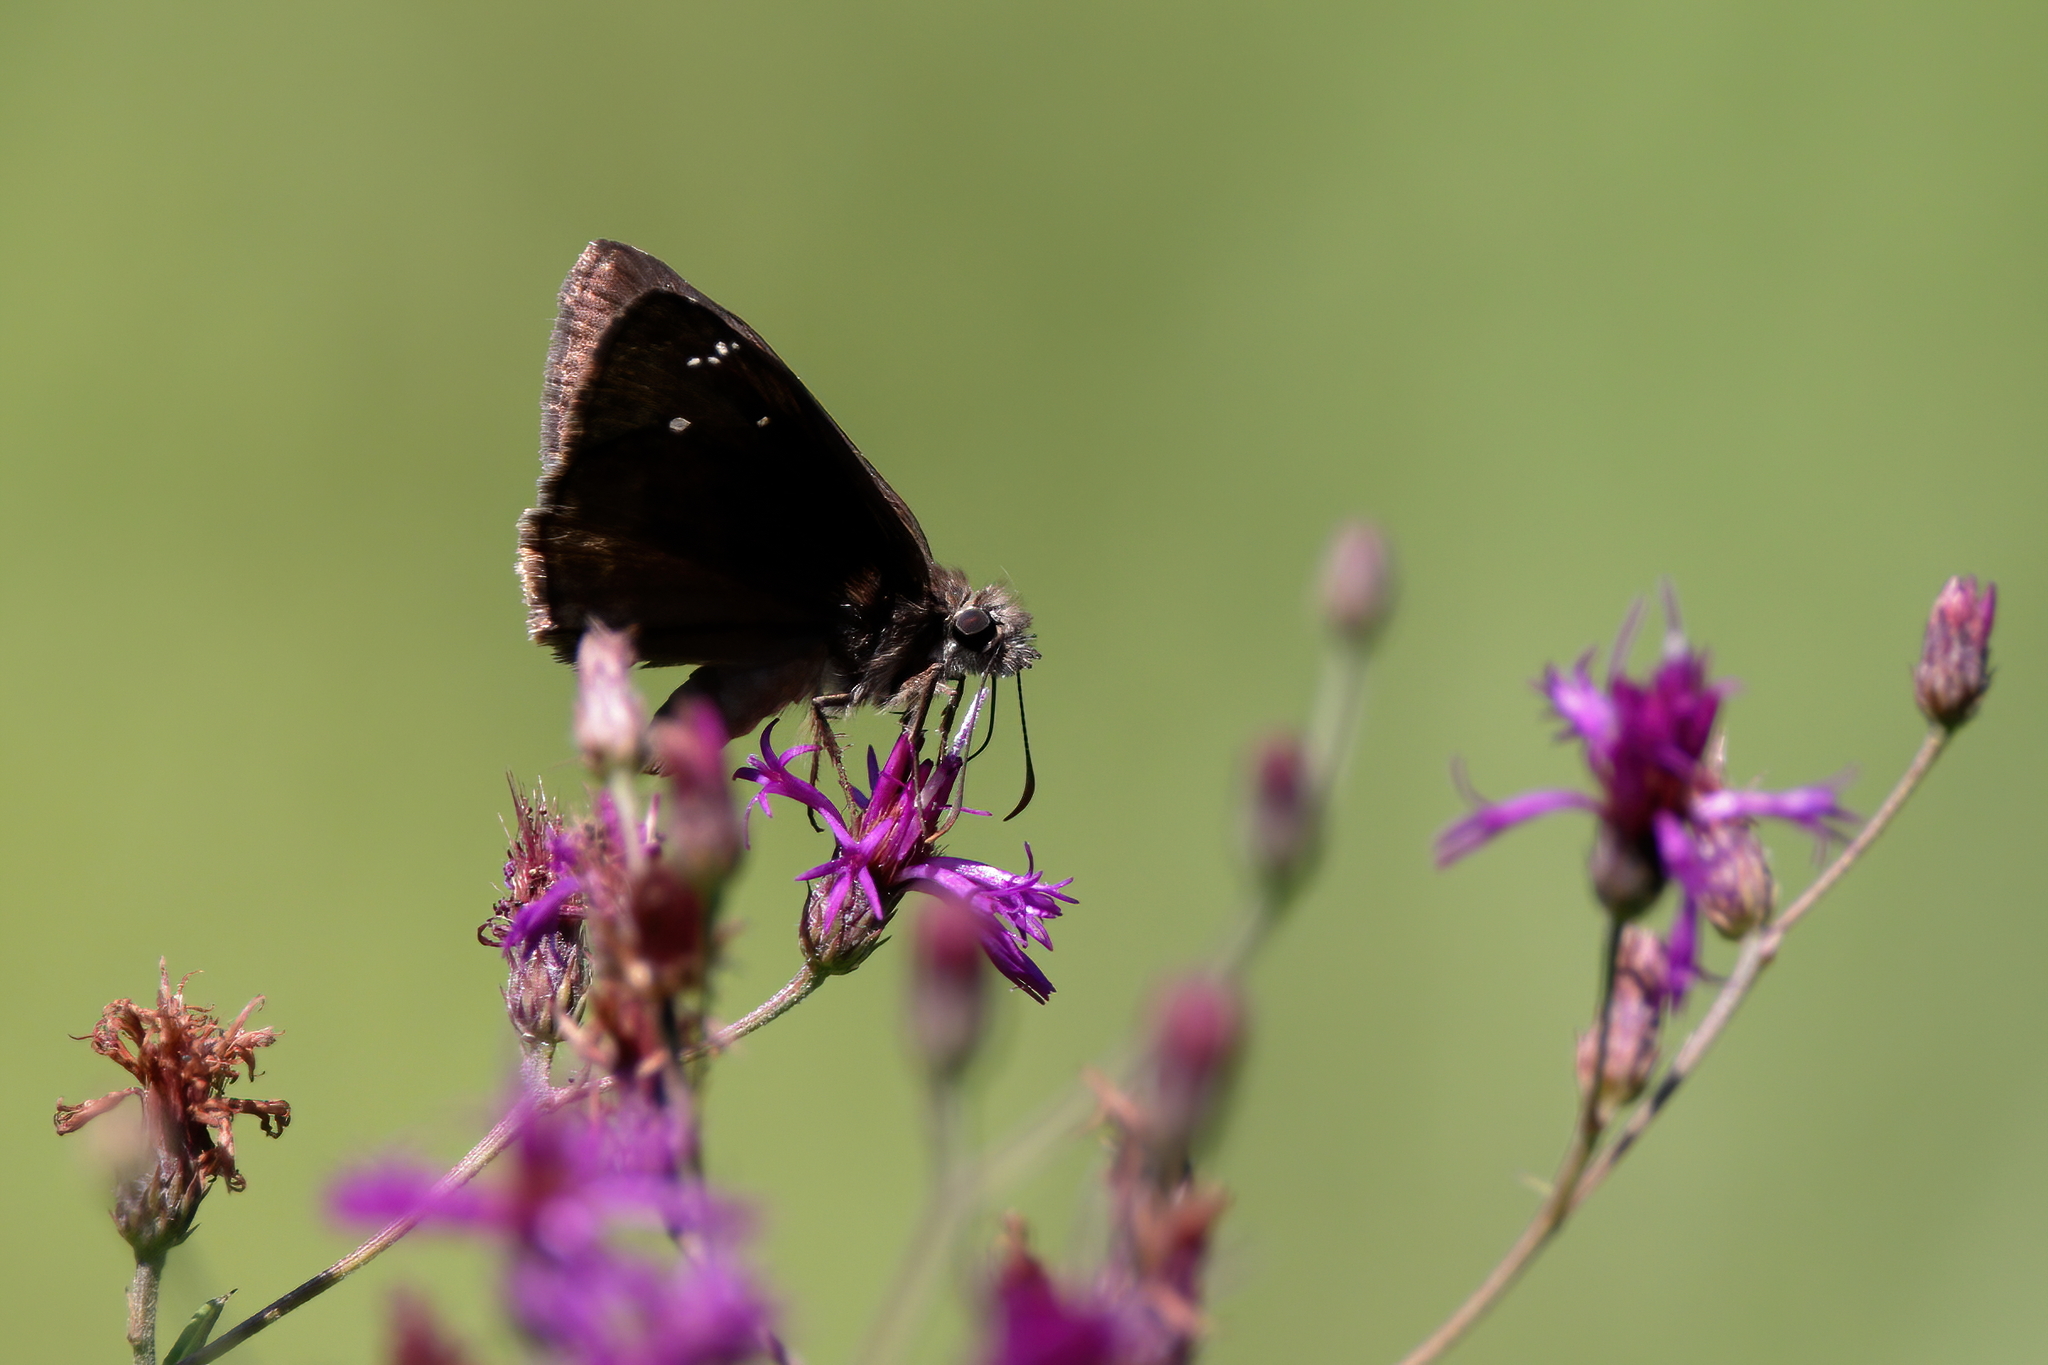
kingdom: Animalia
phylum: Arthropoda
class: Insecta
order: Lepidoptera
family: Hesperiidae
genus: Erynnis
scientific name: Erynnis horatius
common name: Horace's duskywing
